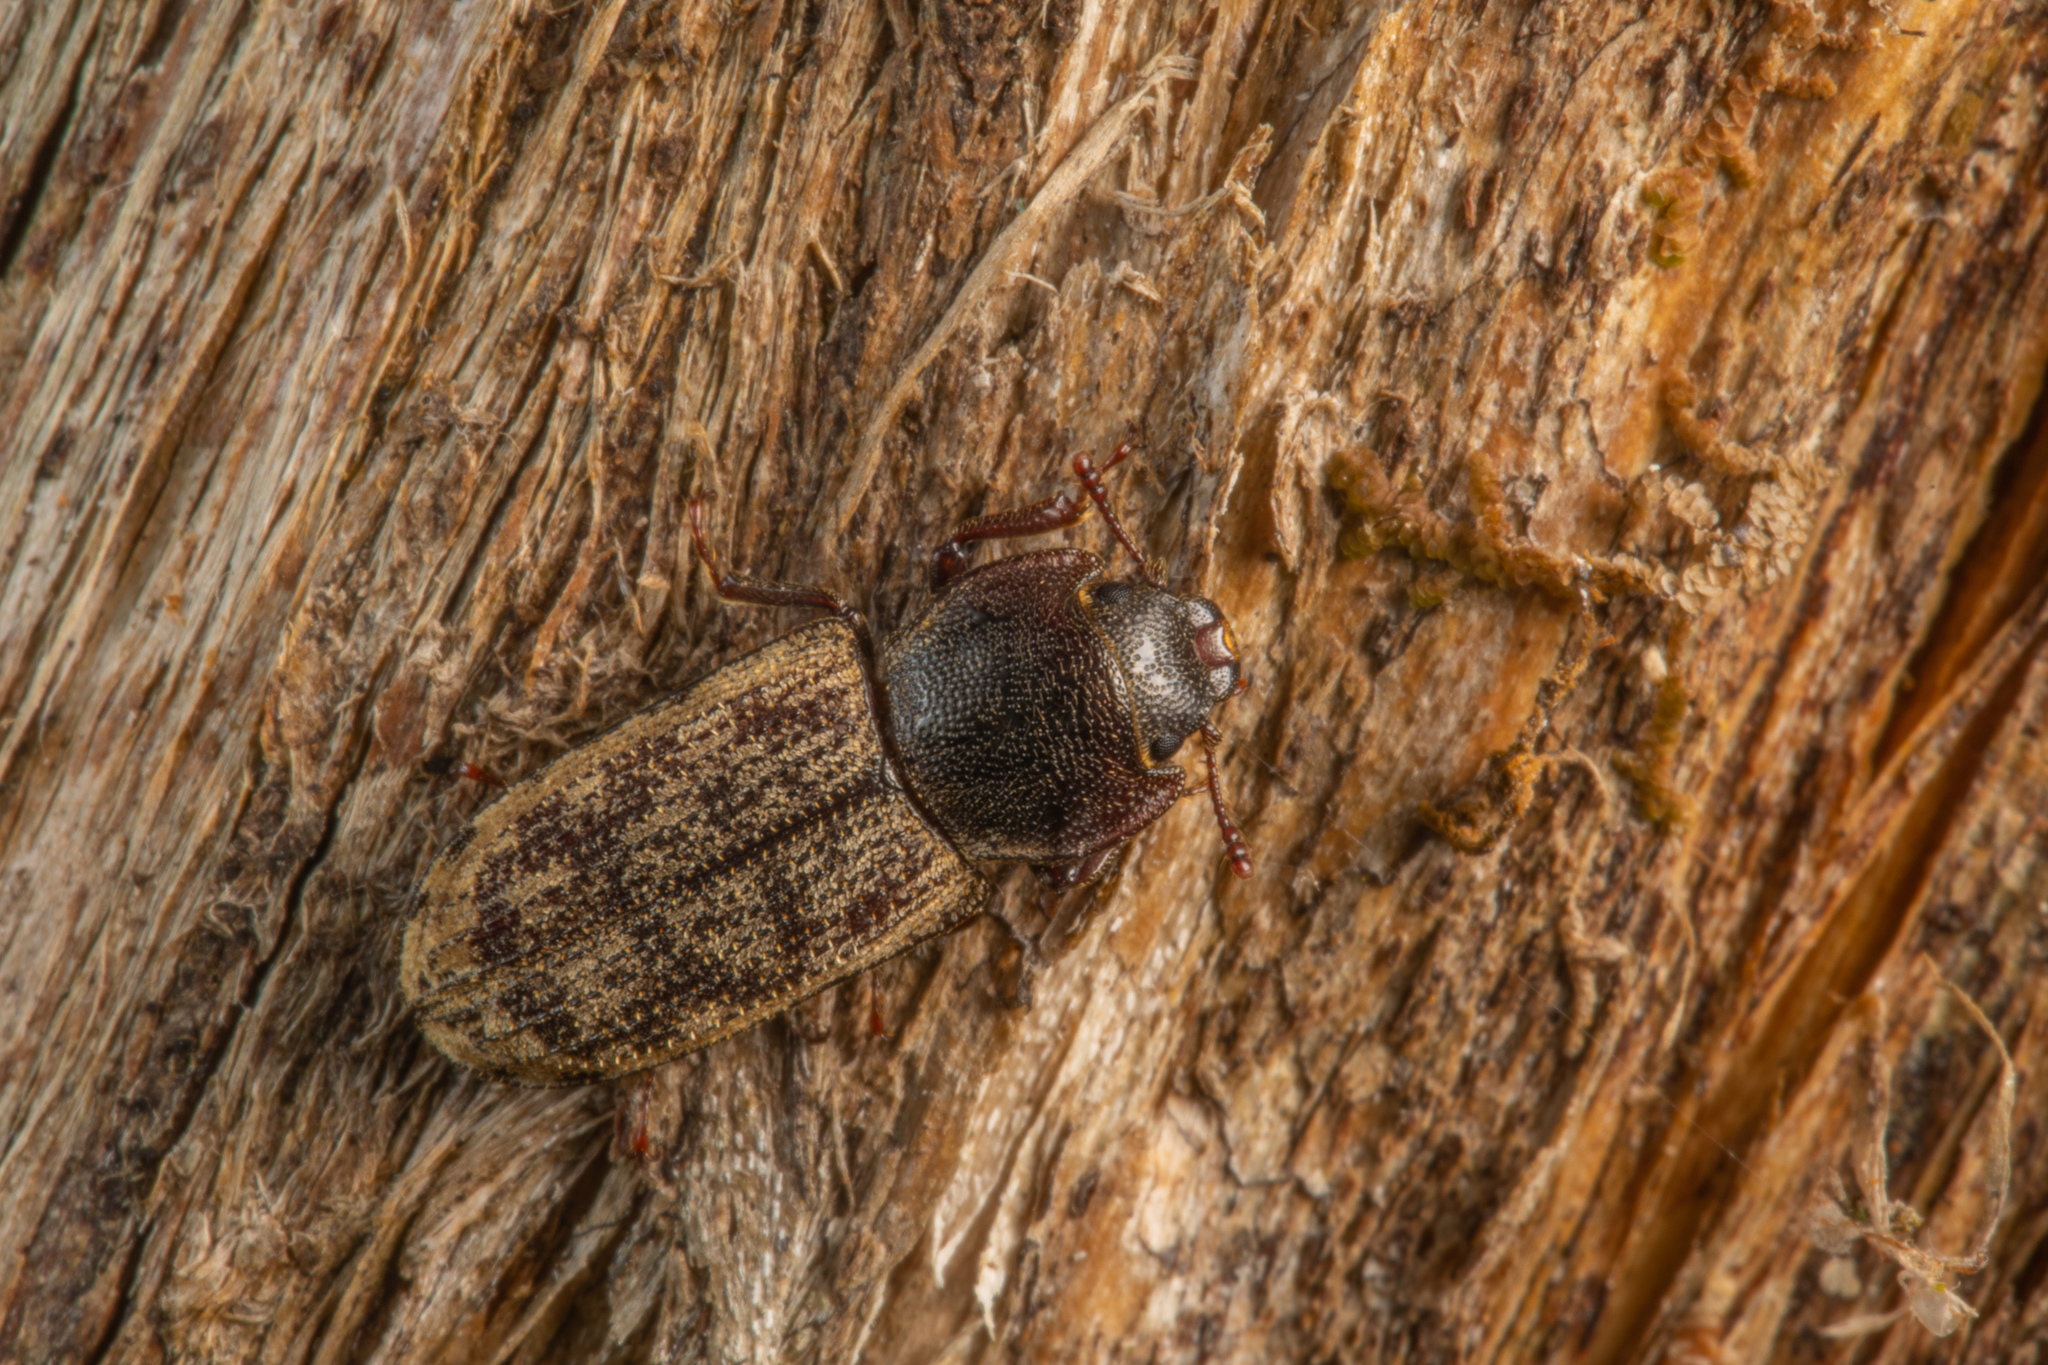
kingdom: Animalia
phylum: Arthropoda
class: Insecta
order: Coleoptera
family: Trogossitidae
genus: Phanodesta
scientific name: Phanodesta
